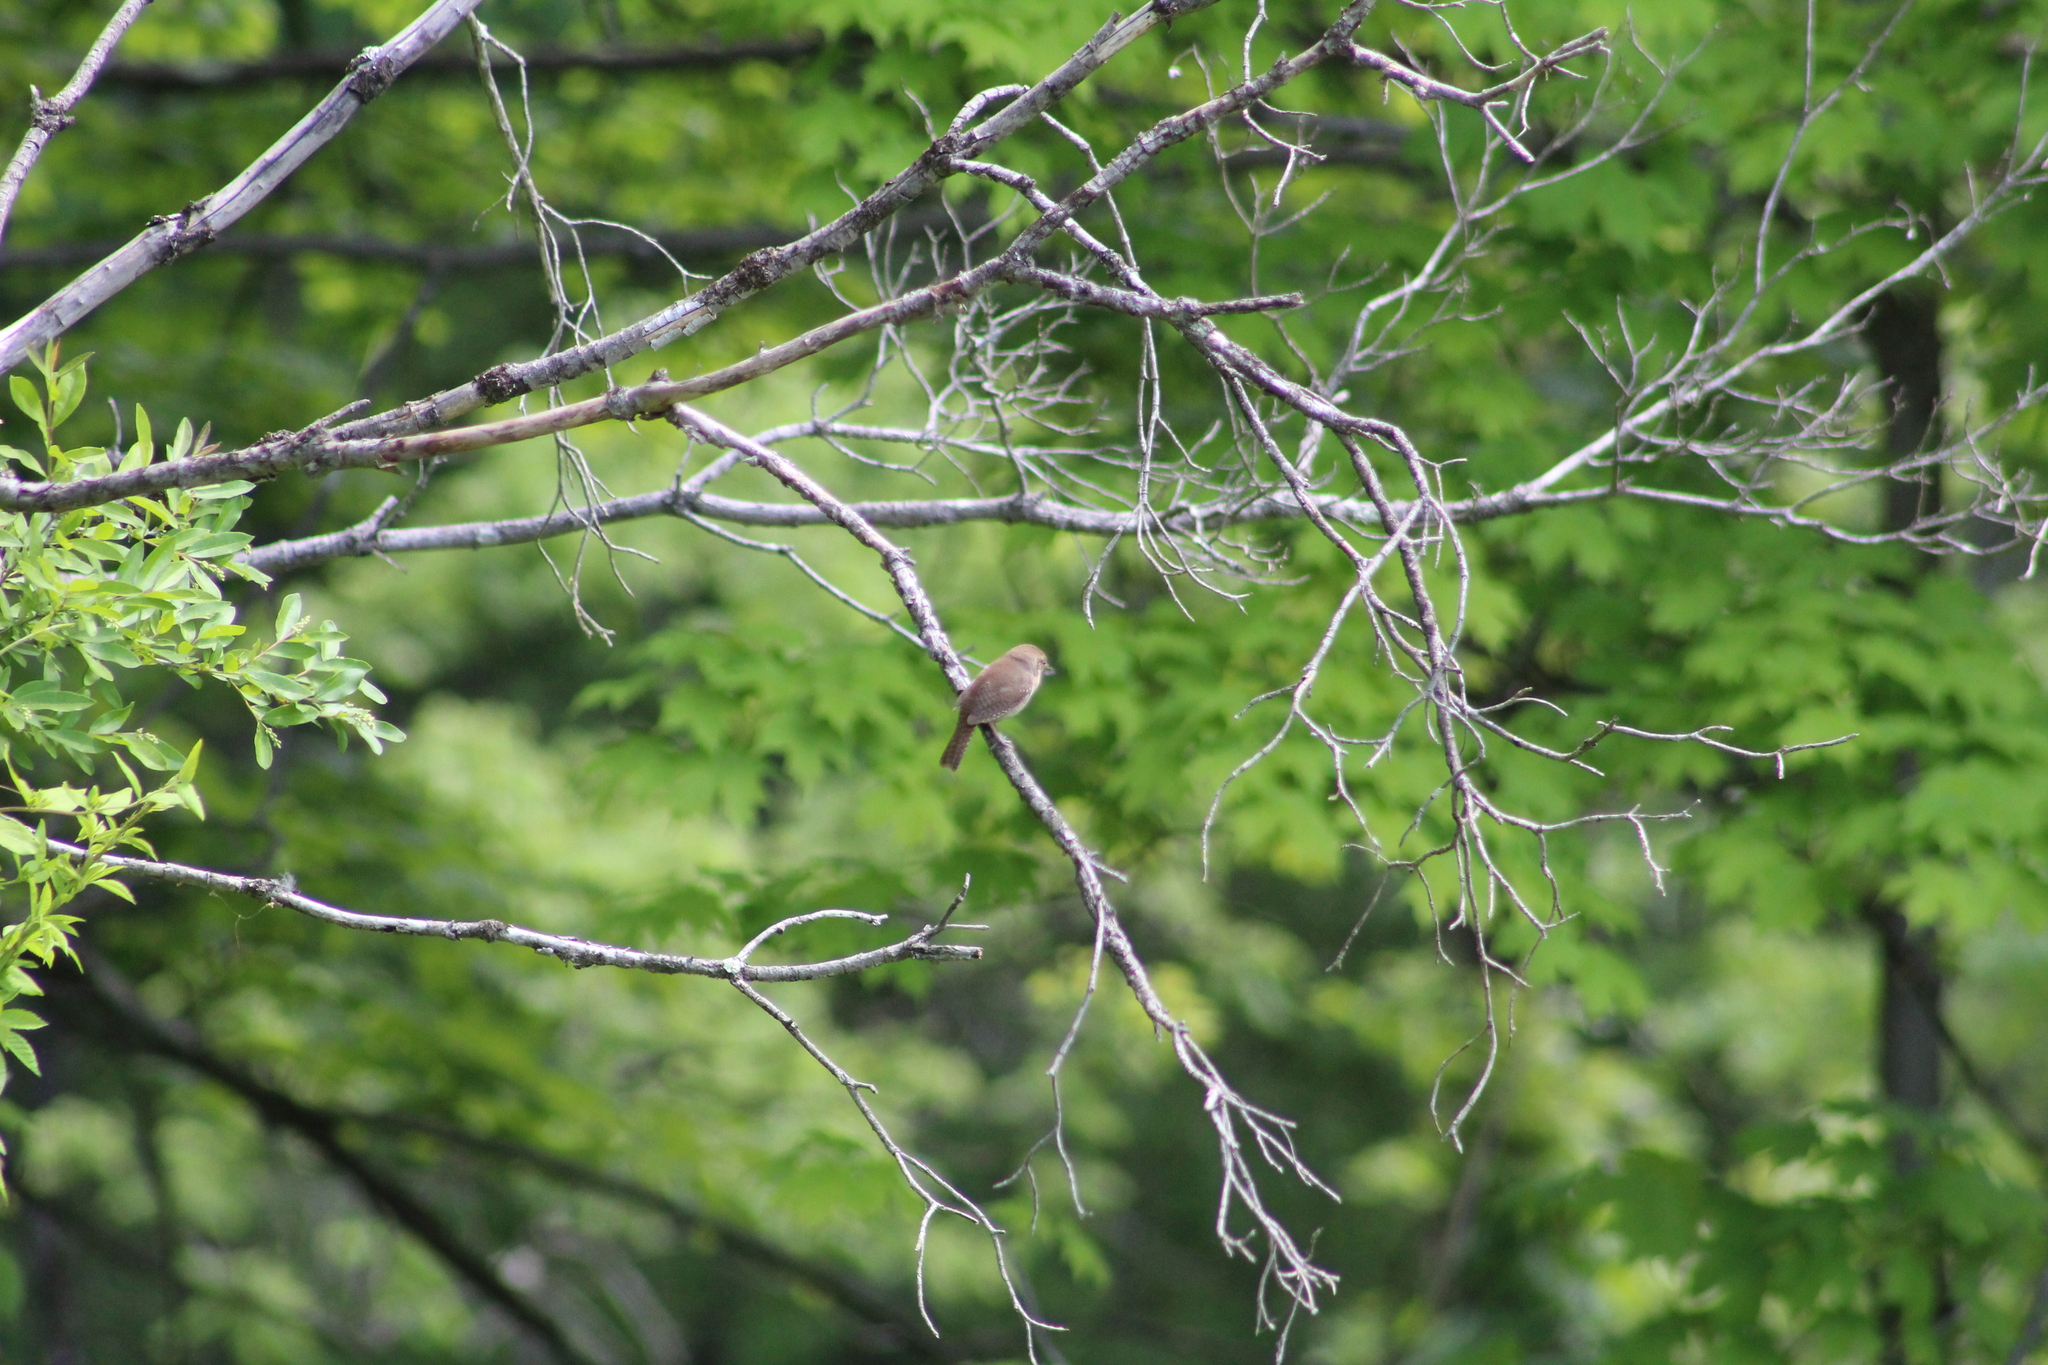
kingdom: Animalia
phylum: Chordata
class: Aves
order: Passeriformes
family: Troglodytidae
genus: Troglodytes
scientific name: Troglodytes aedon
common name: House wren
